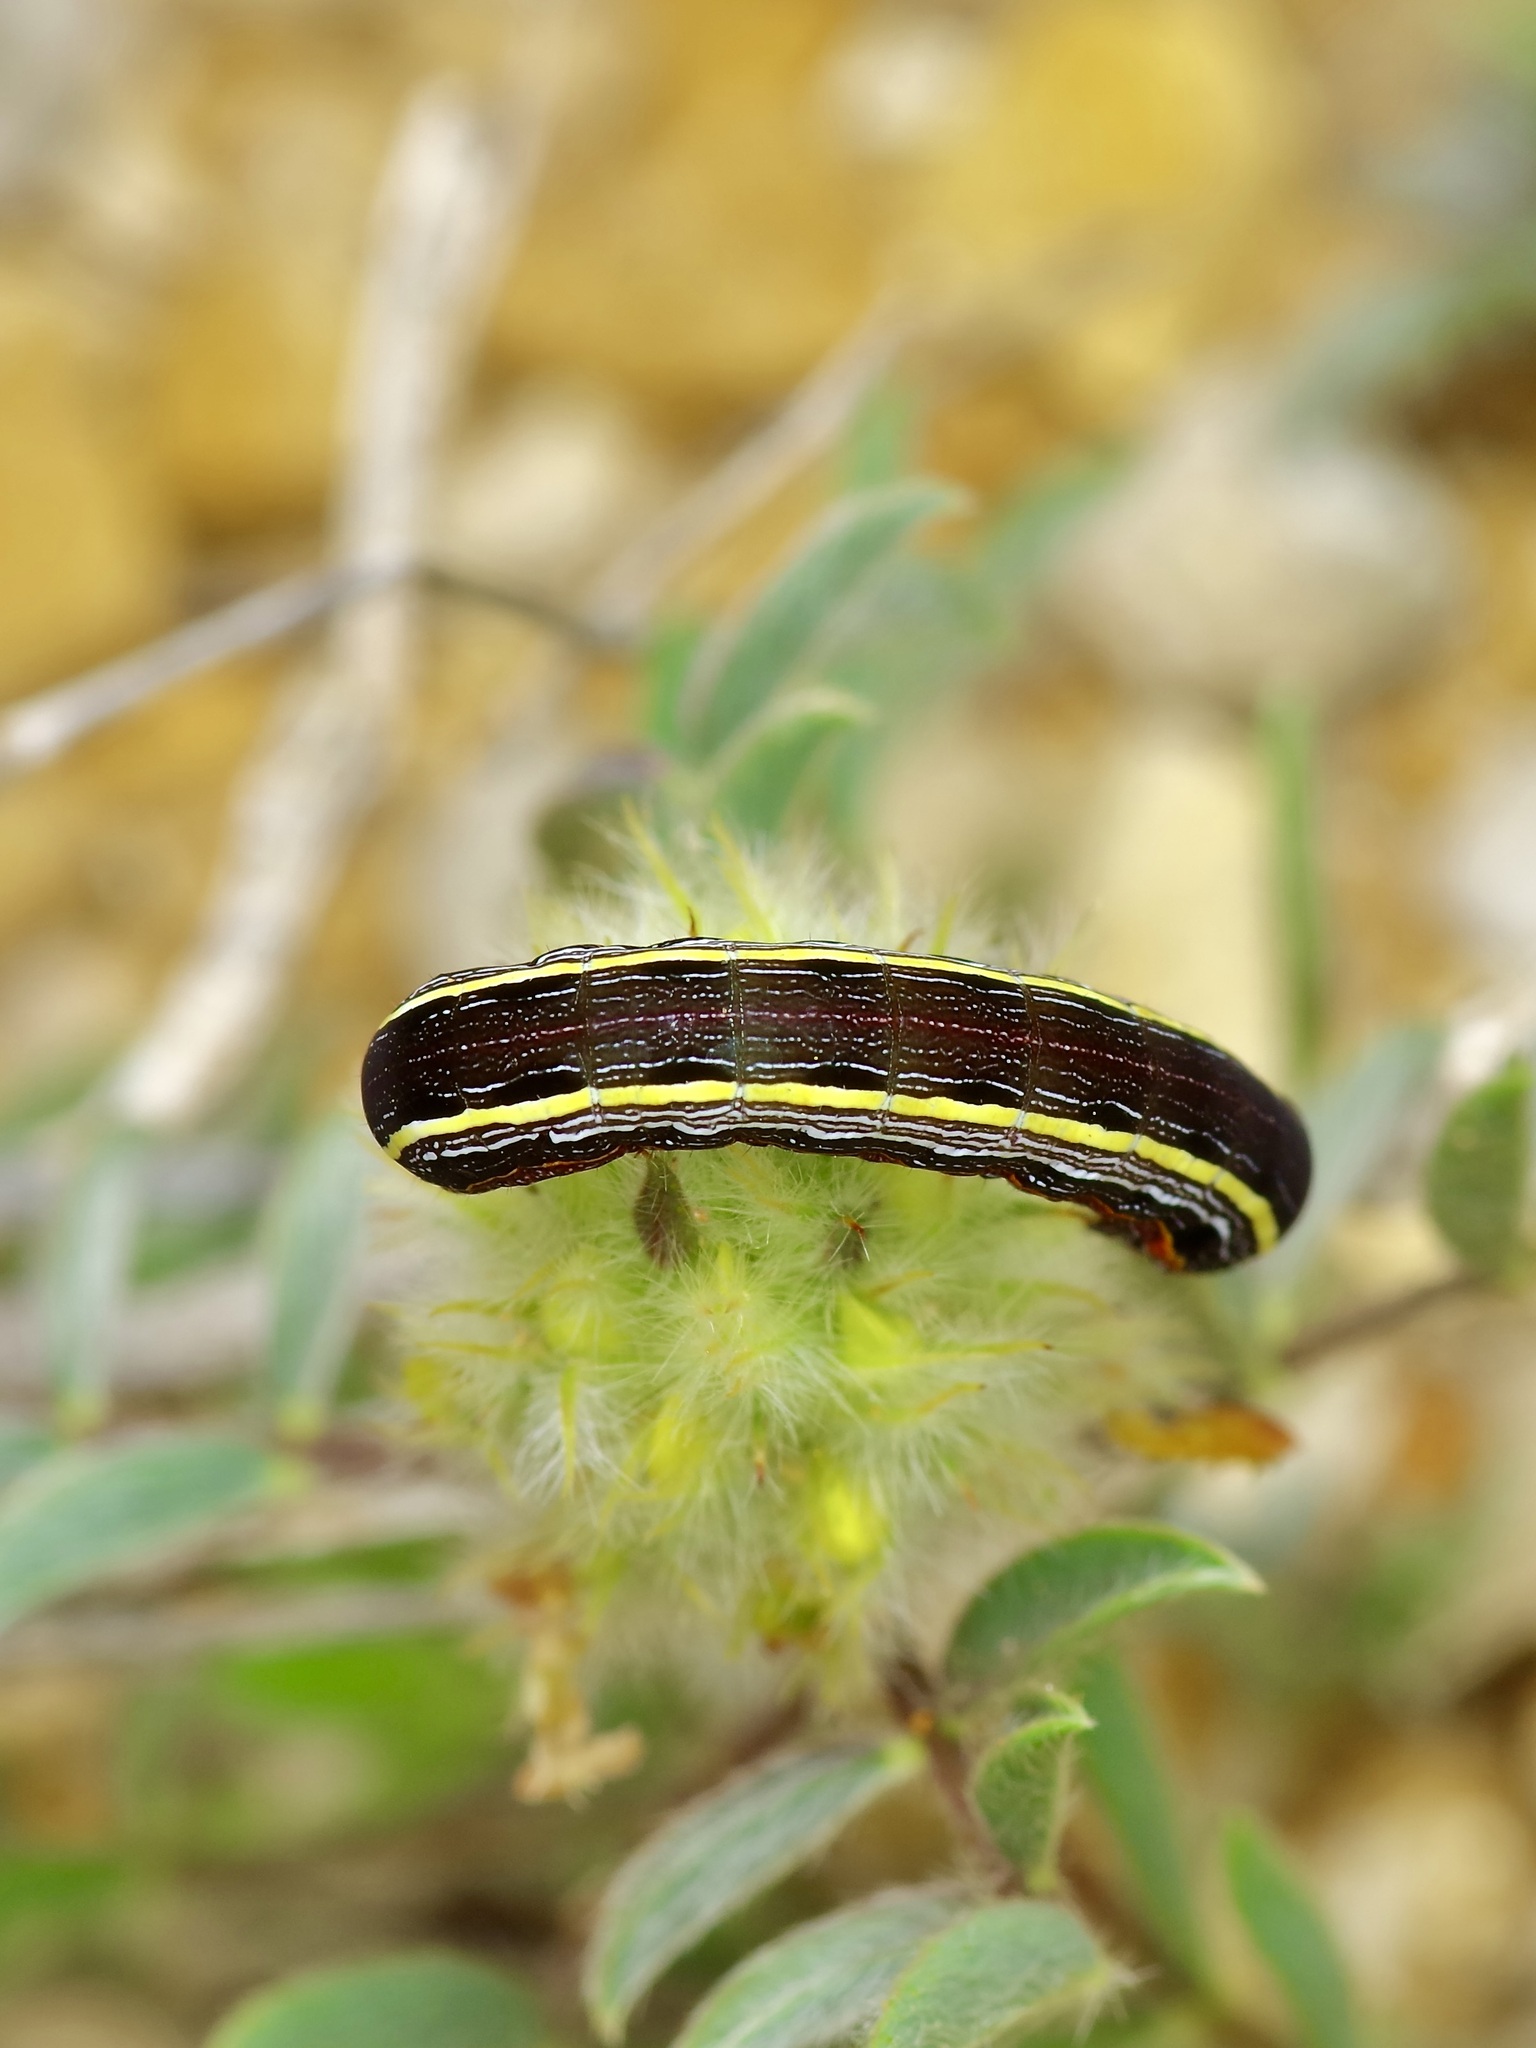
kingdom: Animalia
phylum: Arthropoda
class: Insecta
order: Lepidoptera
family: Noctuidae
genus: Spodoptera
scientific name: Spodoptera ornithogalli
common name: Yellow-striped armyworm
